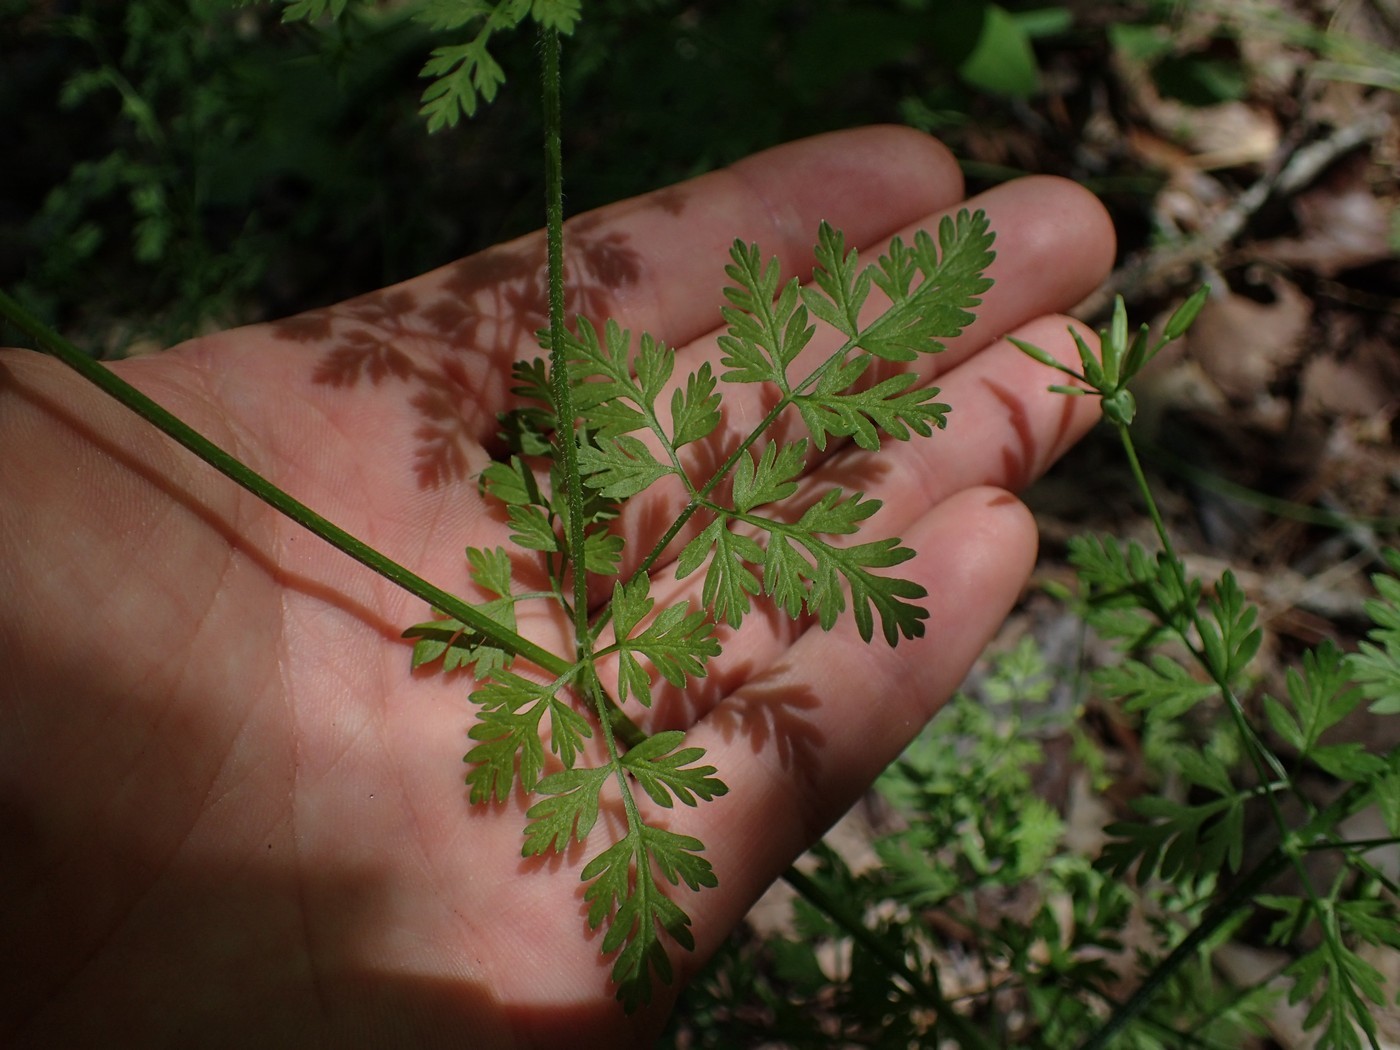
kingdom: Plantae
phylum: Tracheophyta
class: Magnoliopsida
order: Apiales
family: Apiaceae
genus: Chaerophyllum
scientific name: Chaerophyllum tainturieri
